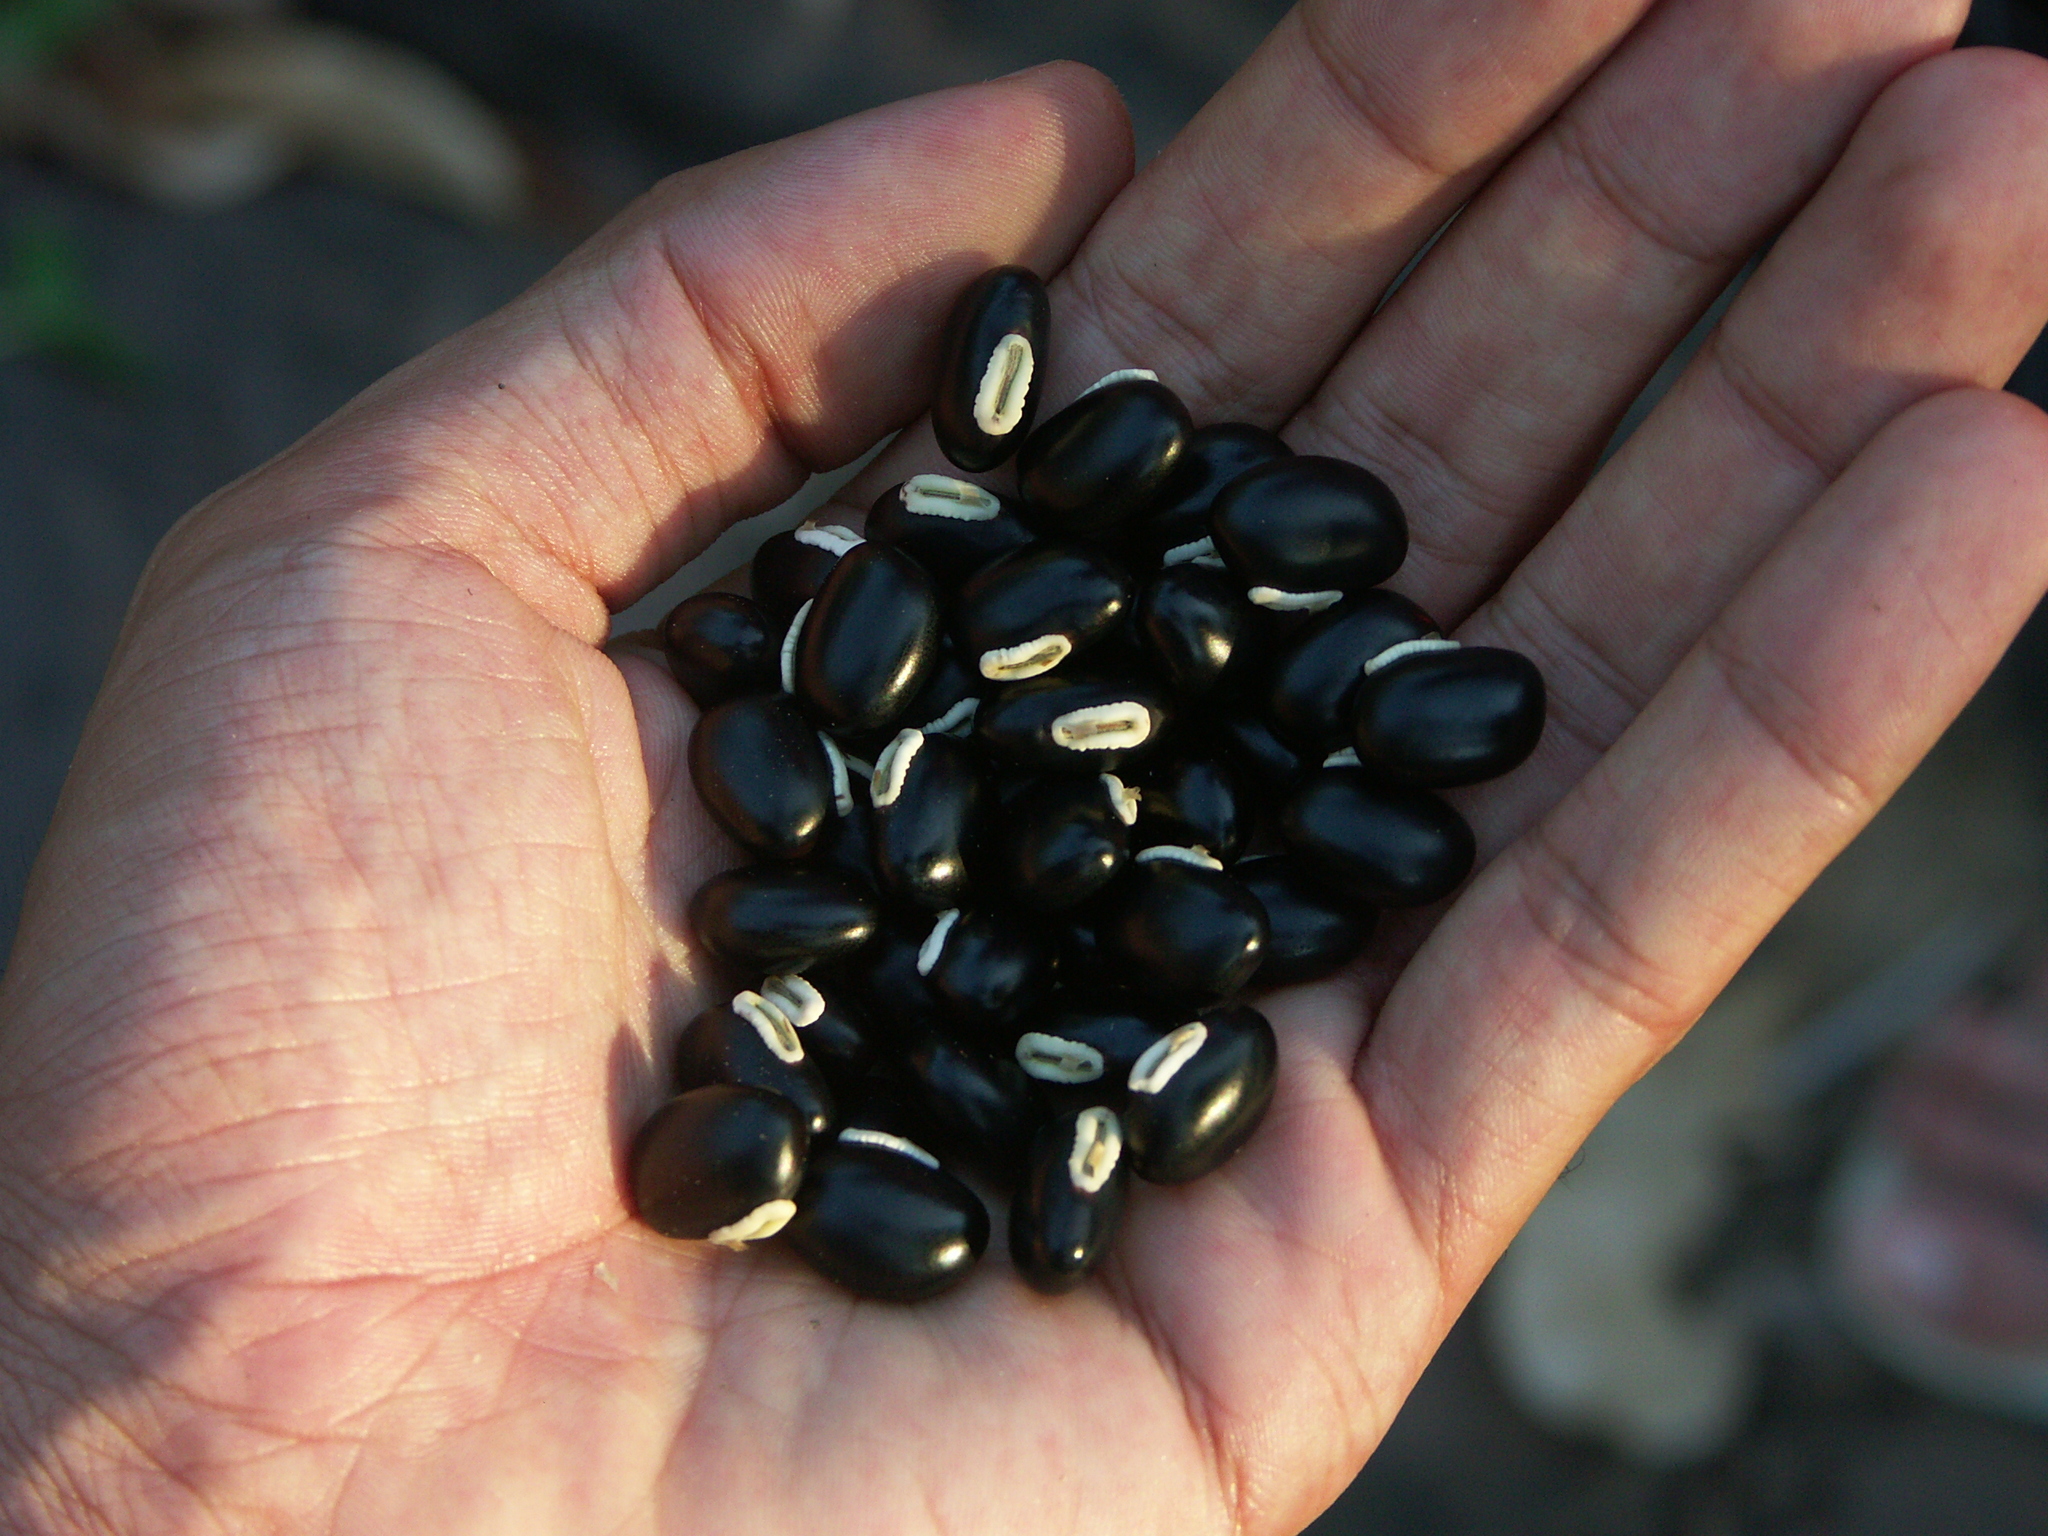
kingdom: Plantae
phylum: Tracheophyta
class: Magnoliopsida
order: Fabales
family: Fabaceae
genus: Mucuna
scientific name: Mucuna pruriens
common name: Cow-itch
